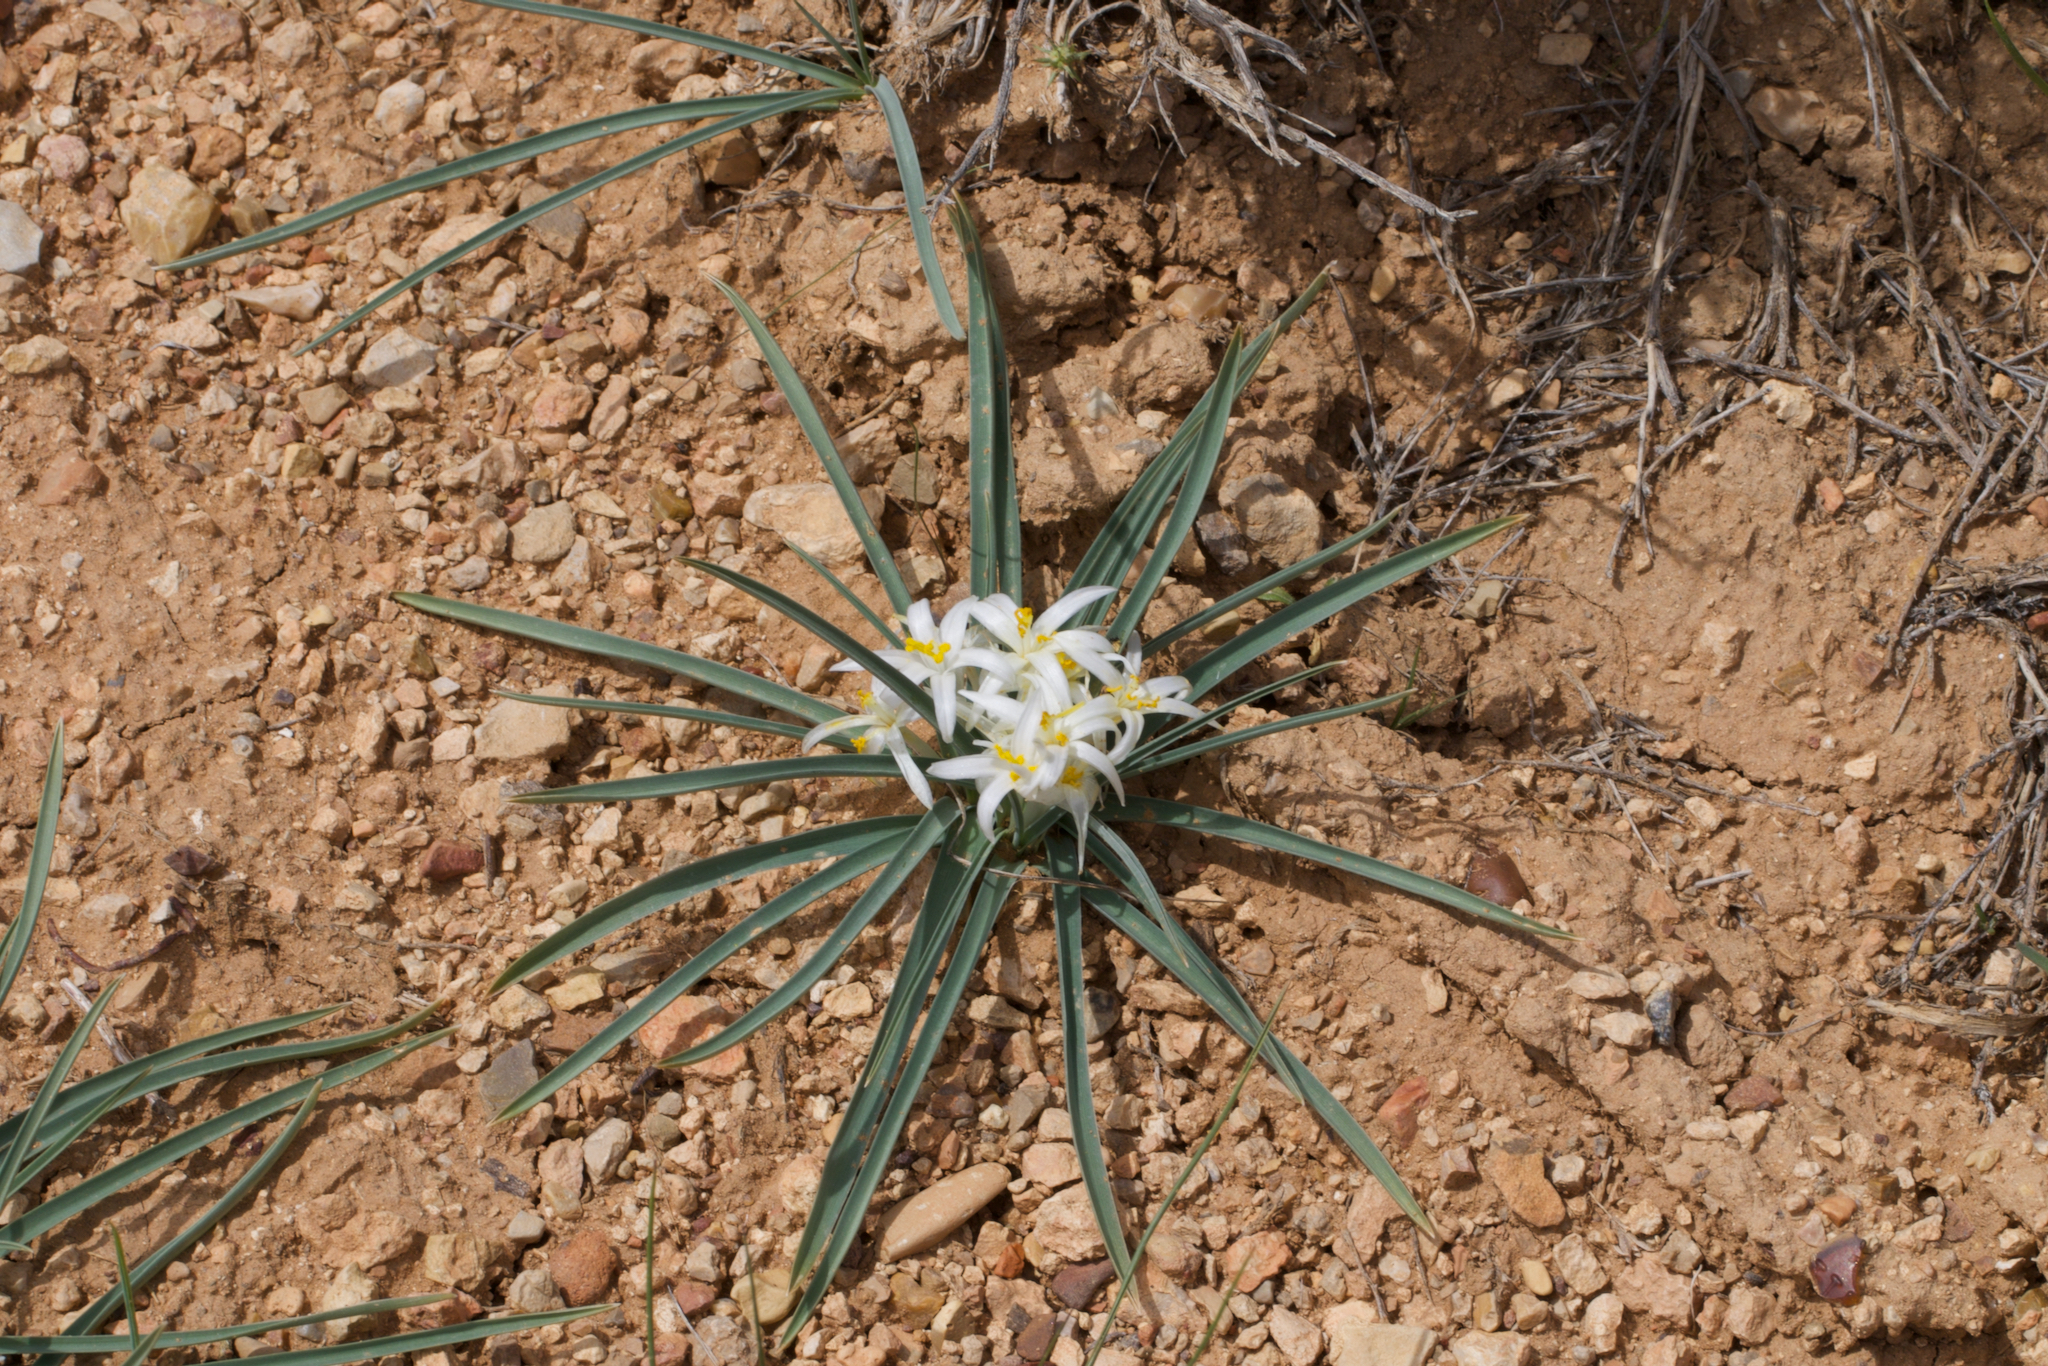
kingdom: Plantae
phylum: Tracheophyta
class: Liliopsida
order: Asparagales
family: Asparagaceae
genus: Leucocrinum
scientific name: Leucocrinum montanum
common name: Mountain-lily
